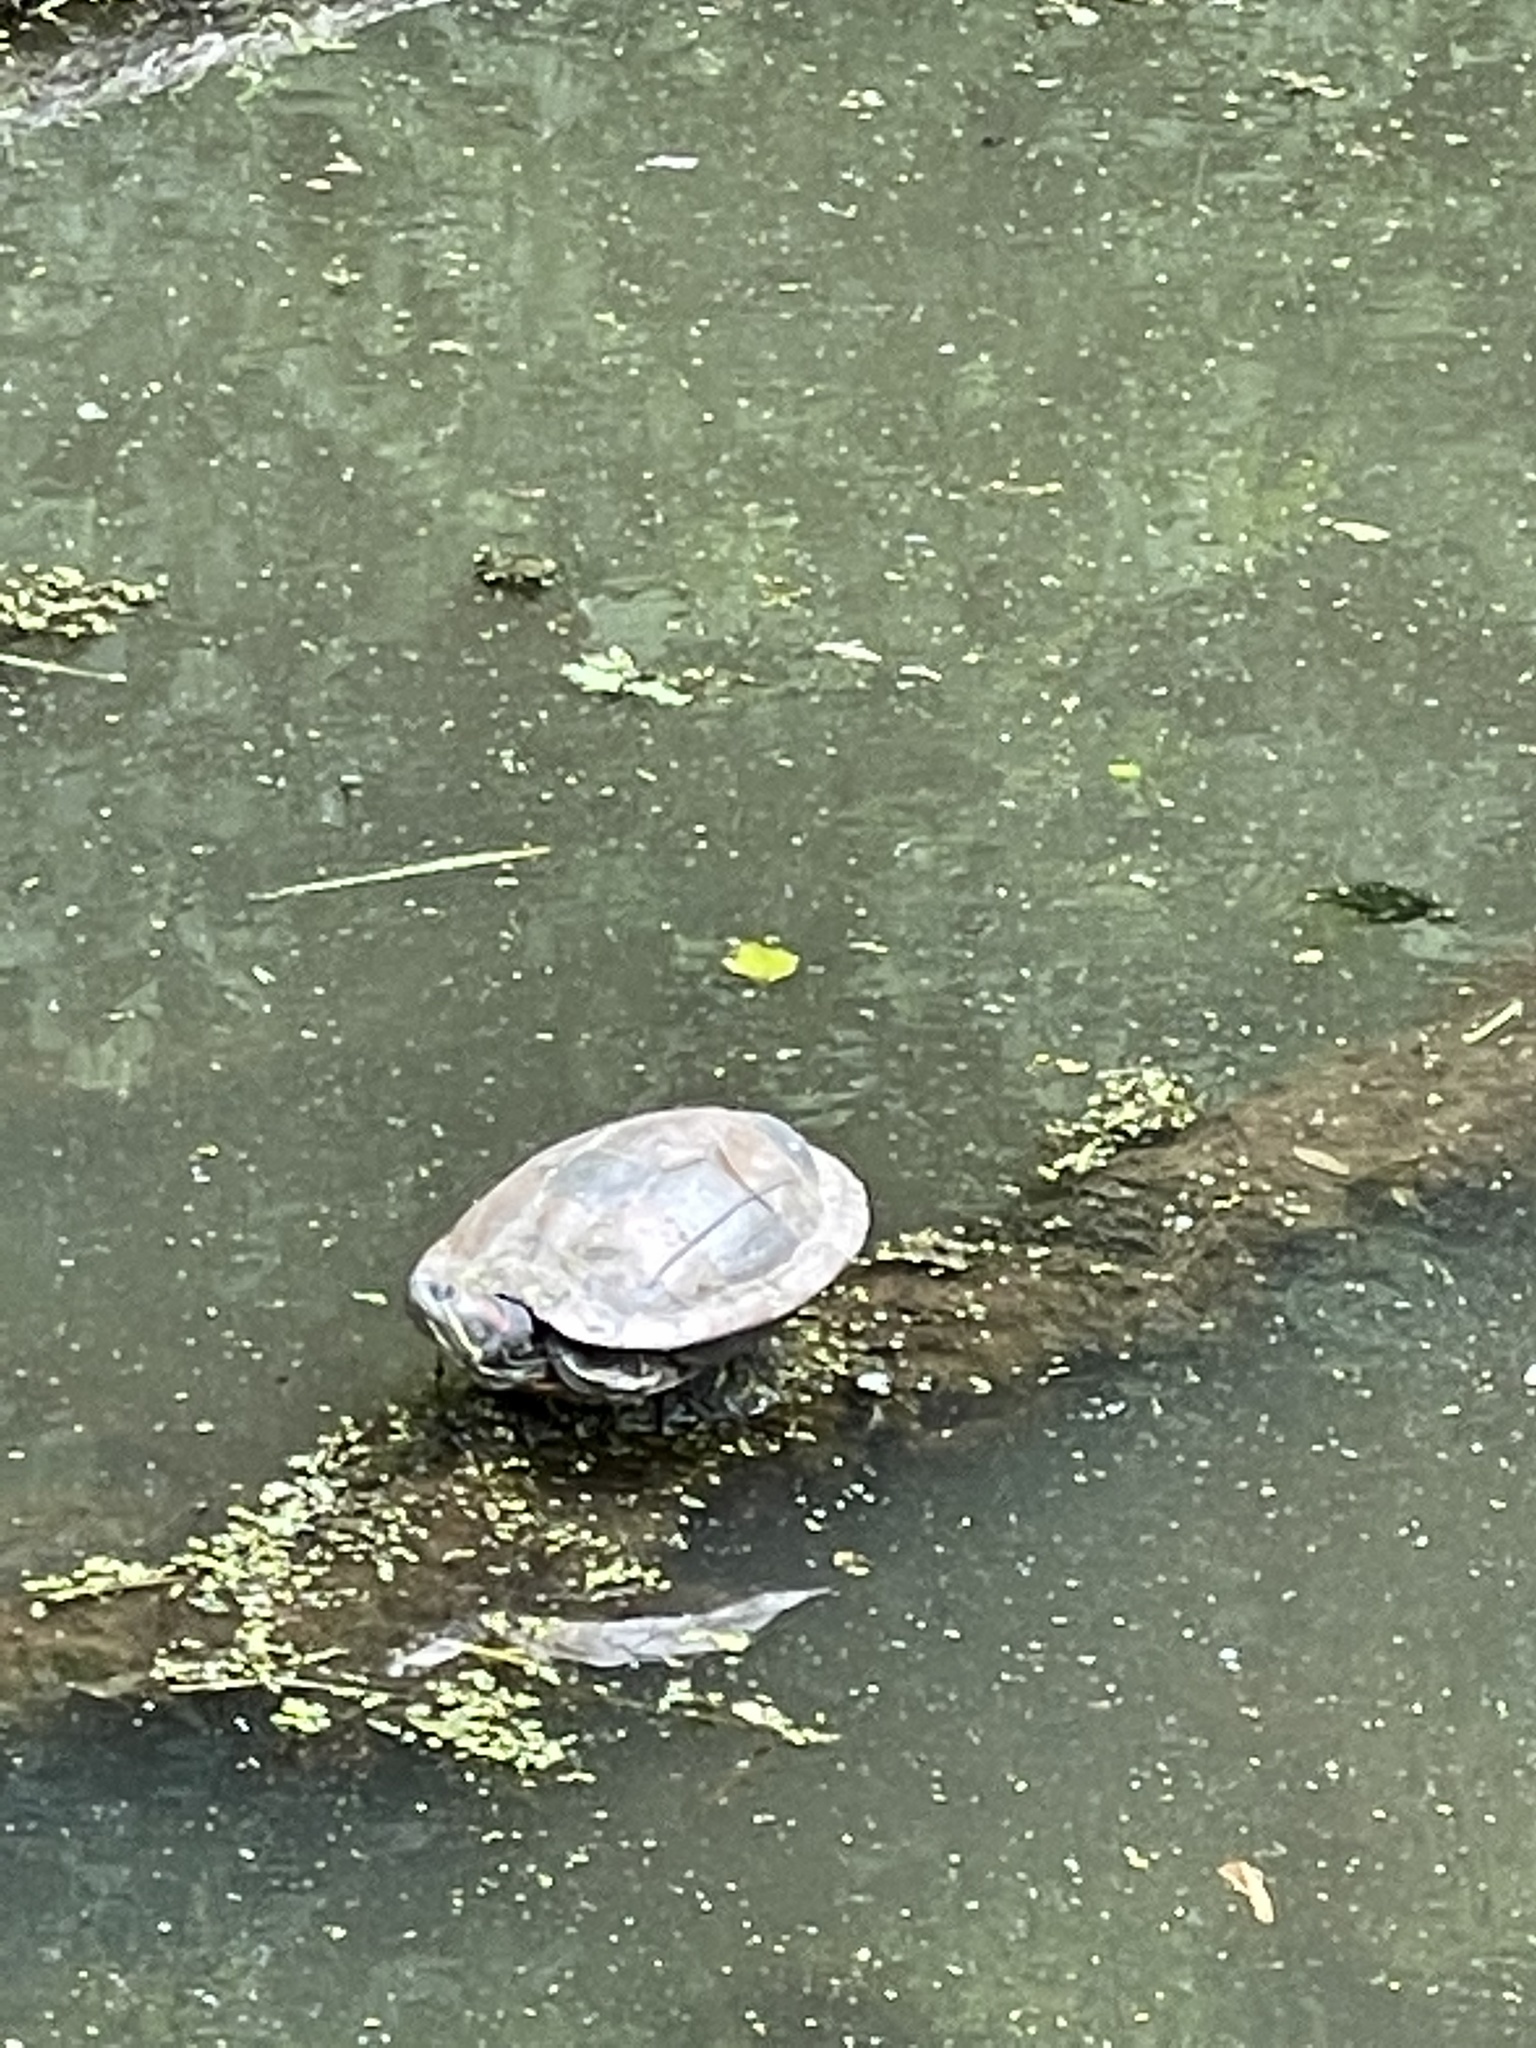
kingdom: Animalia
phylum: Chordata
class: Testudines
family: Emydidae
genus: Trachemys
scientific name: Trachemys scripta
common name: Slider
